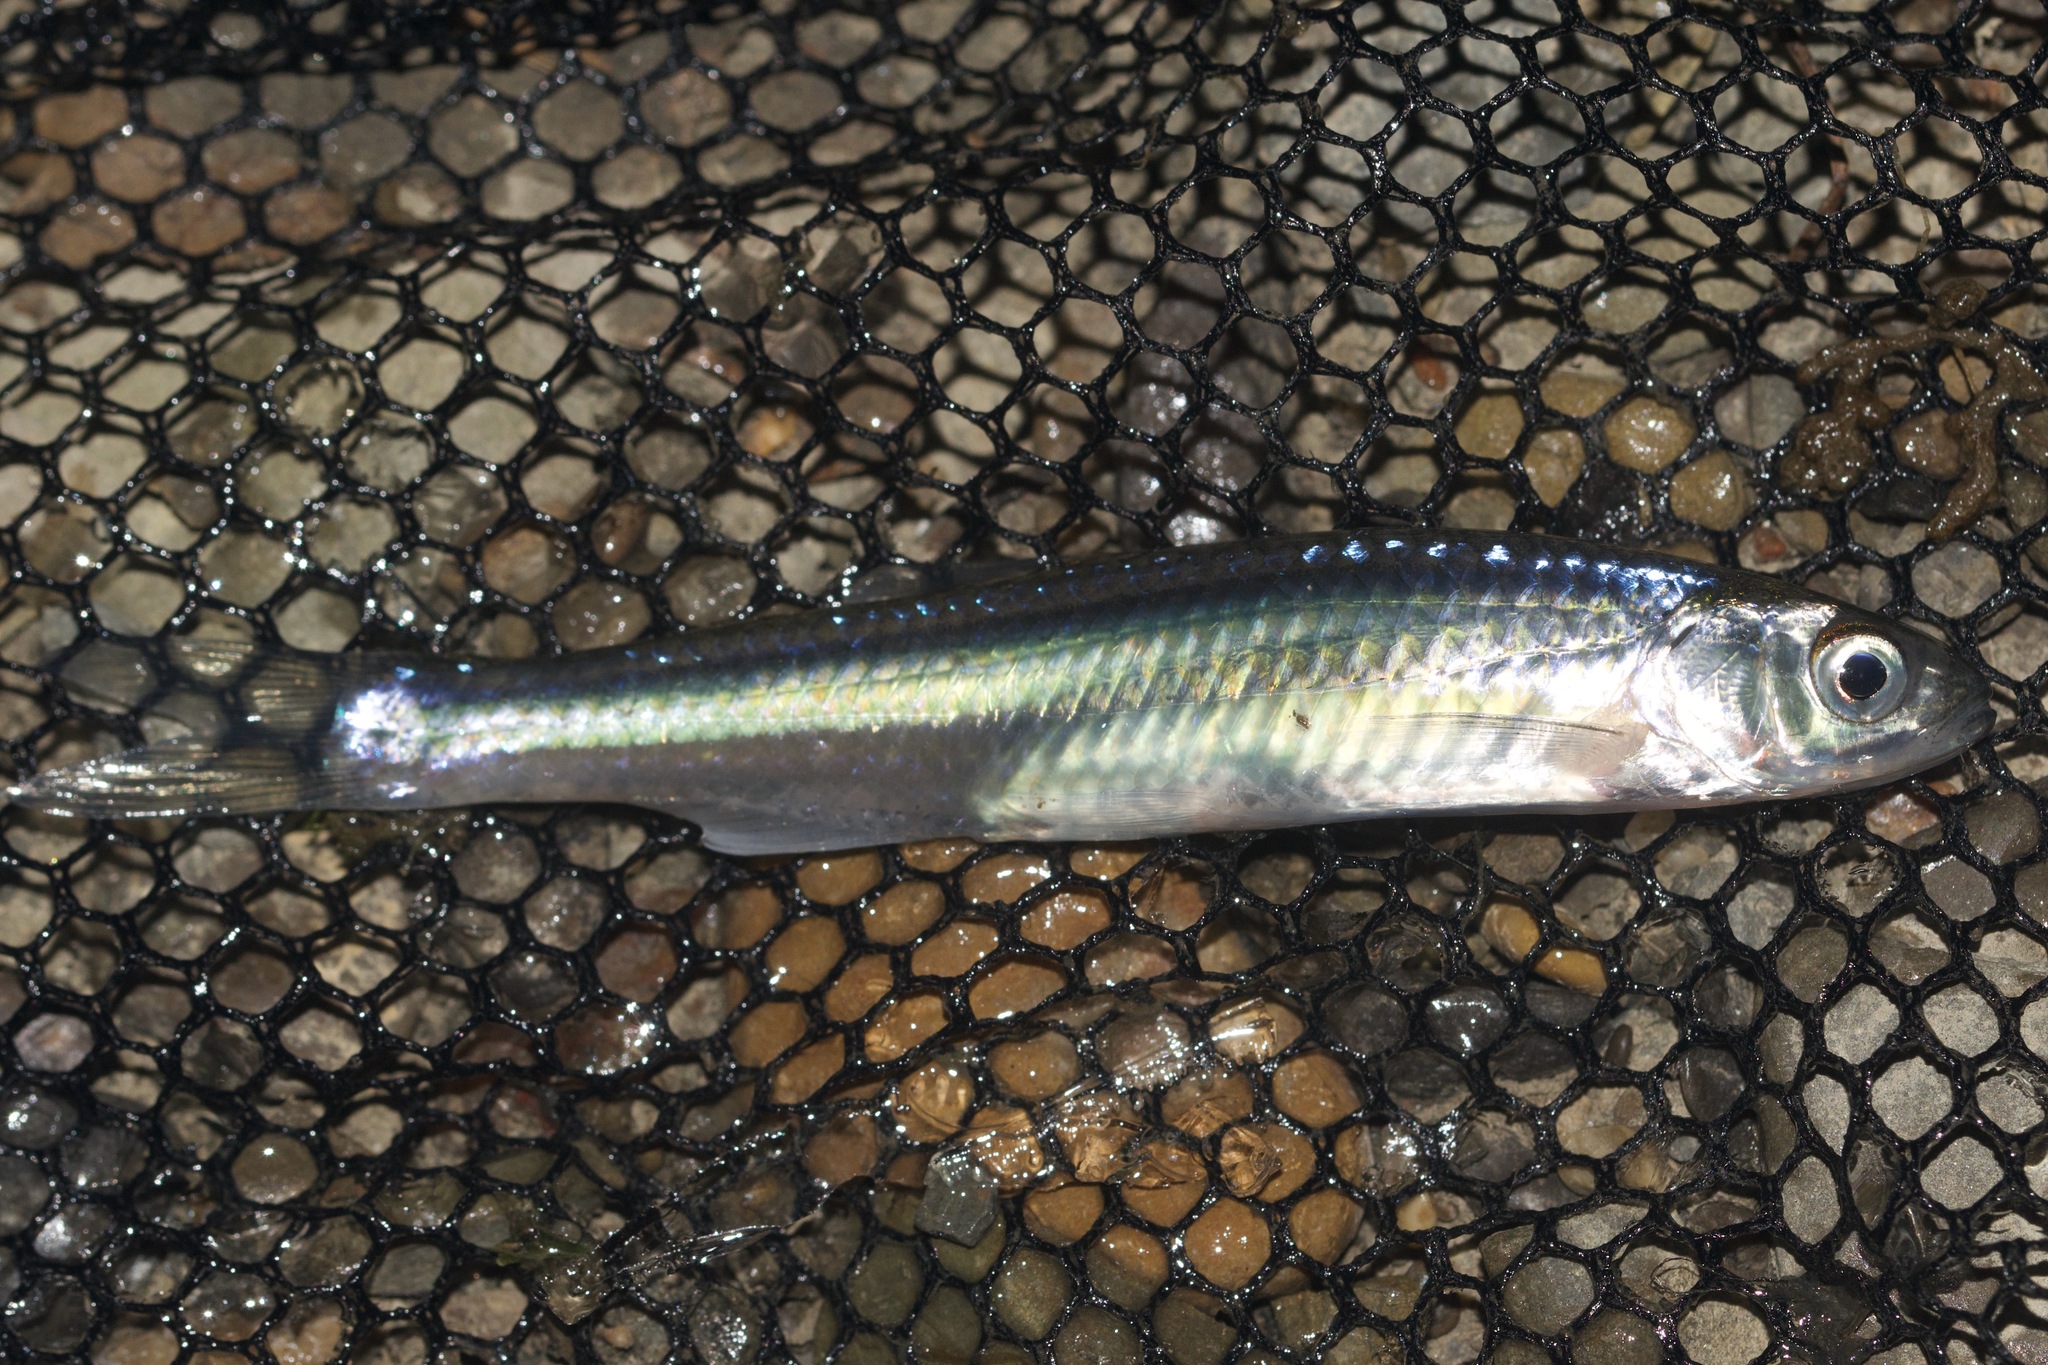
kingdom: Animalia
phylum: Chordata
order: Cypriniformes
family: Cyprinidae
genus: Notropis
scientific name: Notropis atherinoides
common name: Emerald shiner
